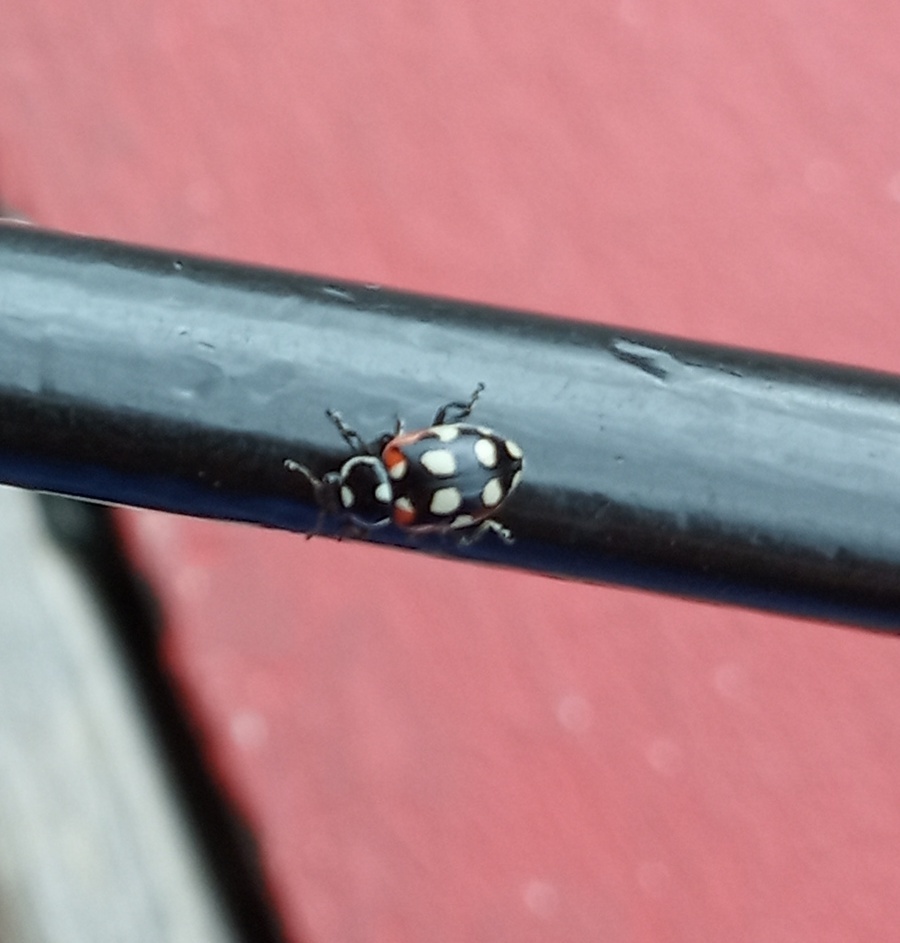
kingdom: Animalia
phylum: Arthropoda
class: Insecta
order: Coleoptera
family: Coccinellidae
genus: Eriopis
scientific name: Eriopis punicola
